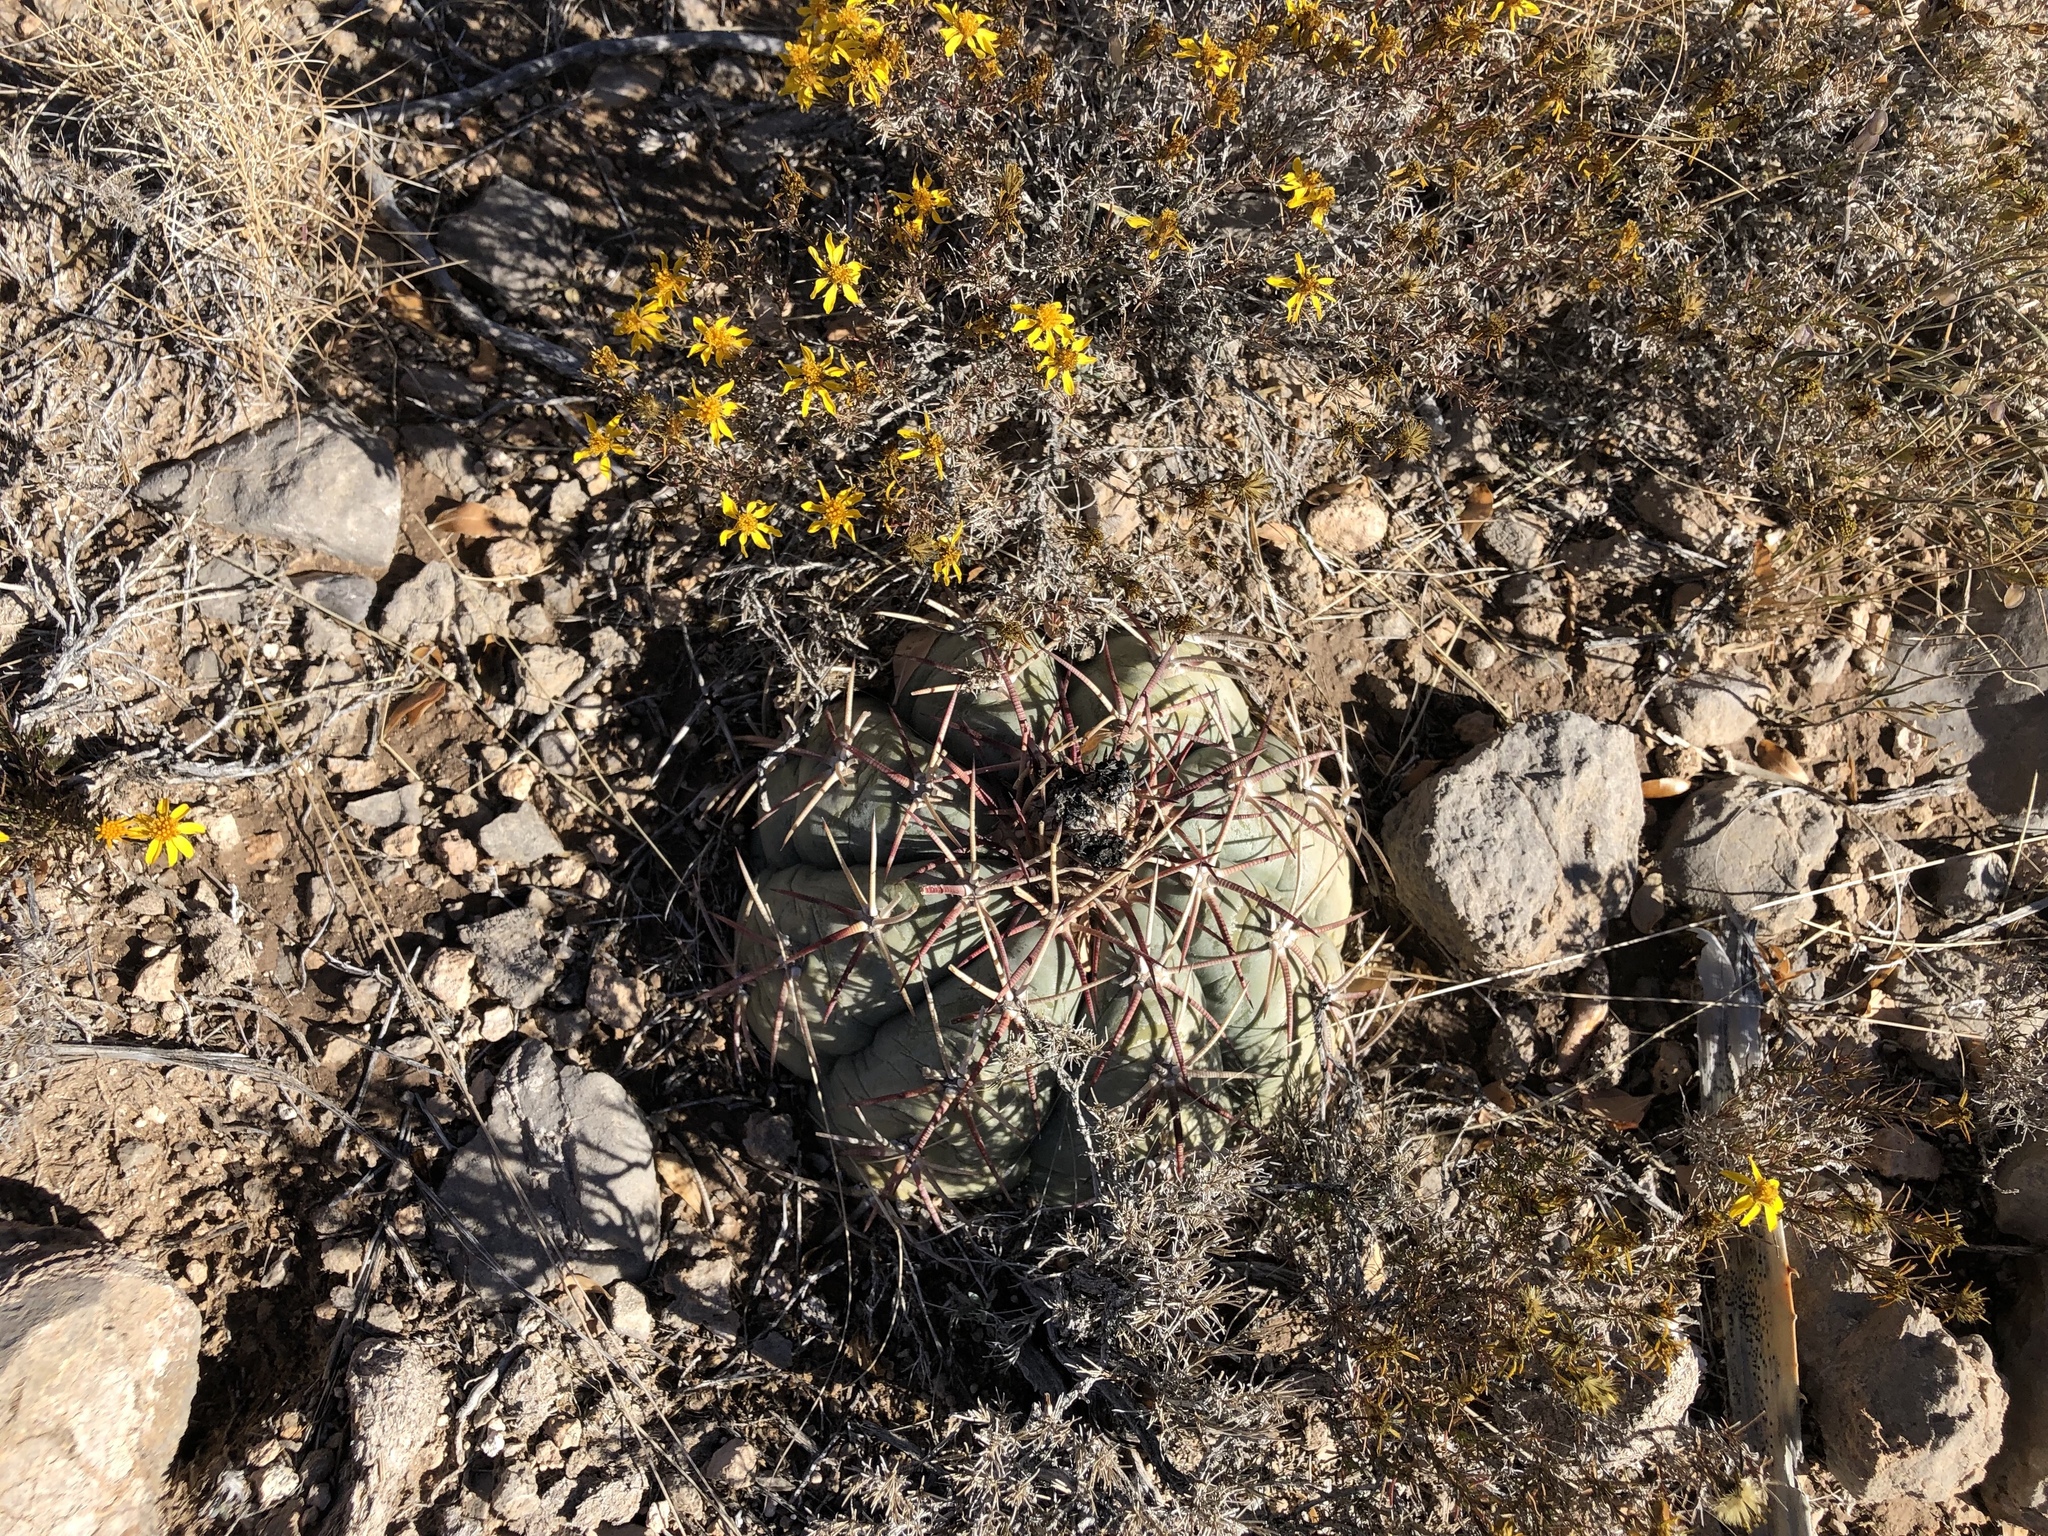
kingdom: Plantae
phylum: Tracheophyta
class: Magnoliopsida
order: Caryophyllales
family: Cactaceae
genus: Echinocactus
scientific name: Echinocactus horizonthalonius
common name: Devilshead
